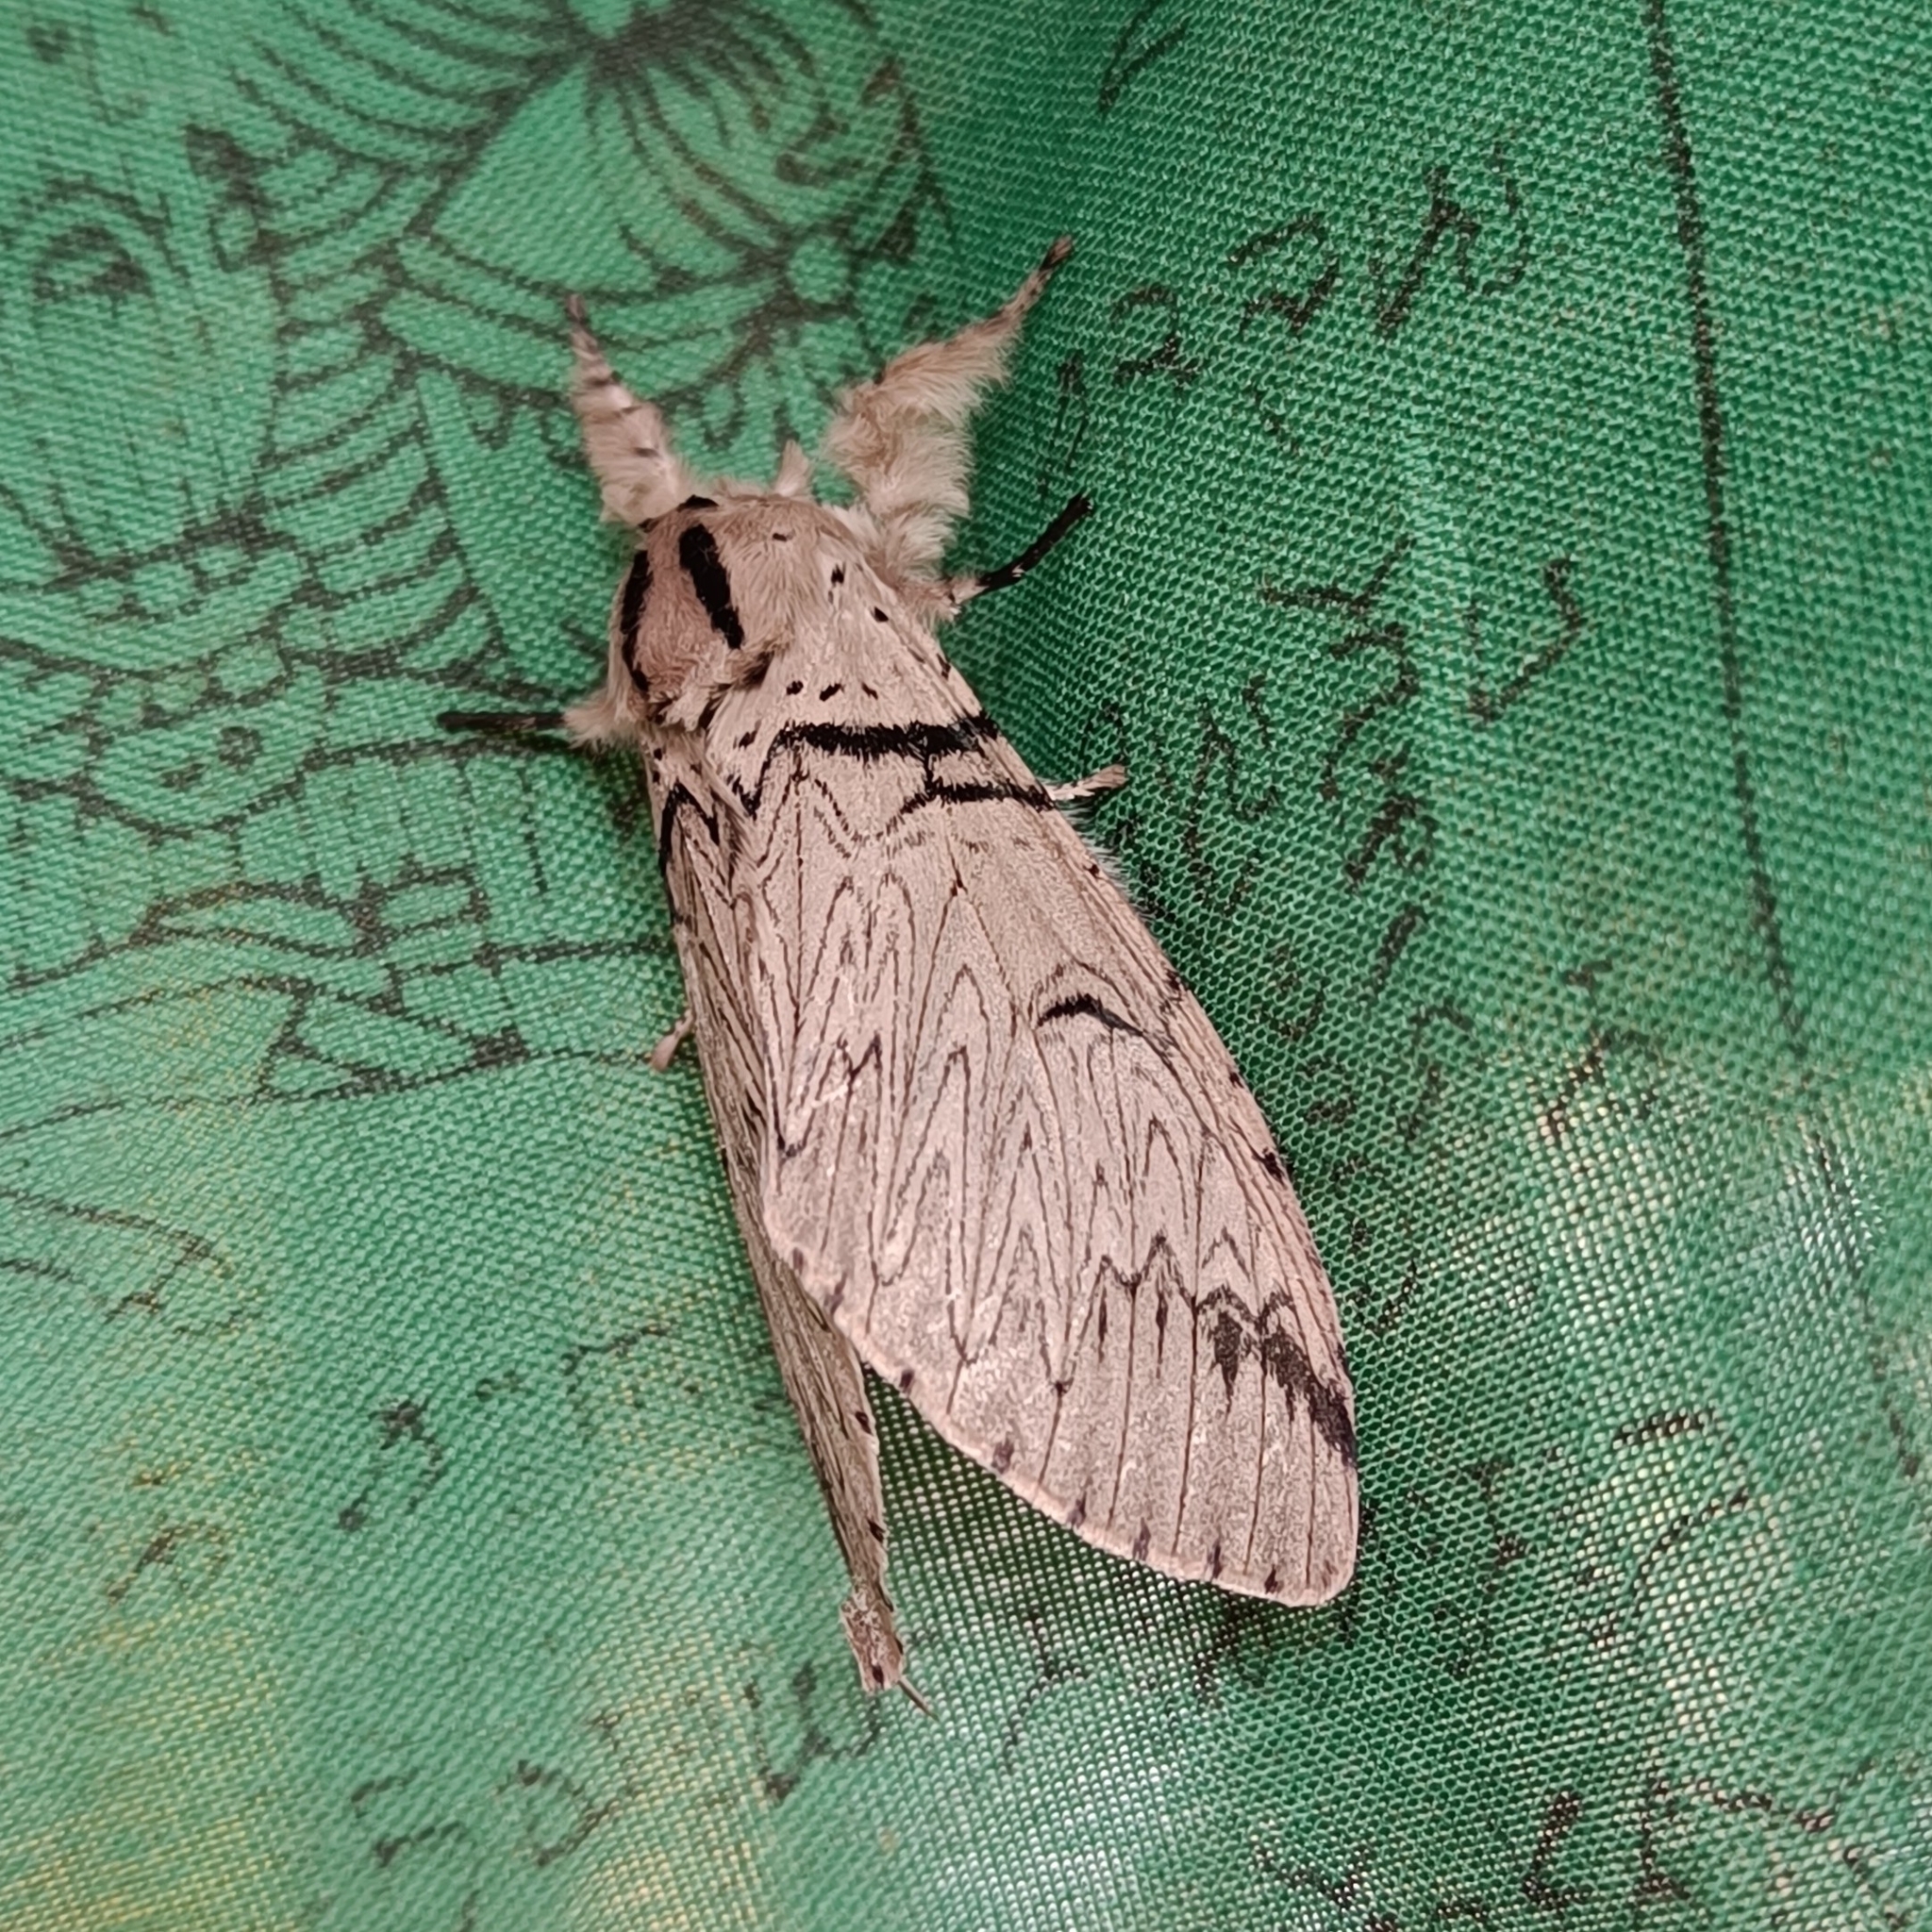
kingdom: Animalia
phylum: Arthropoda
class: Insecta
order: Lepidoptera
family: Notodontidae
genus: Cerura
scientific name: Cerura roesleri
